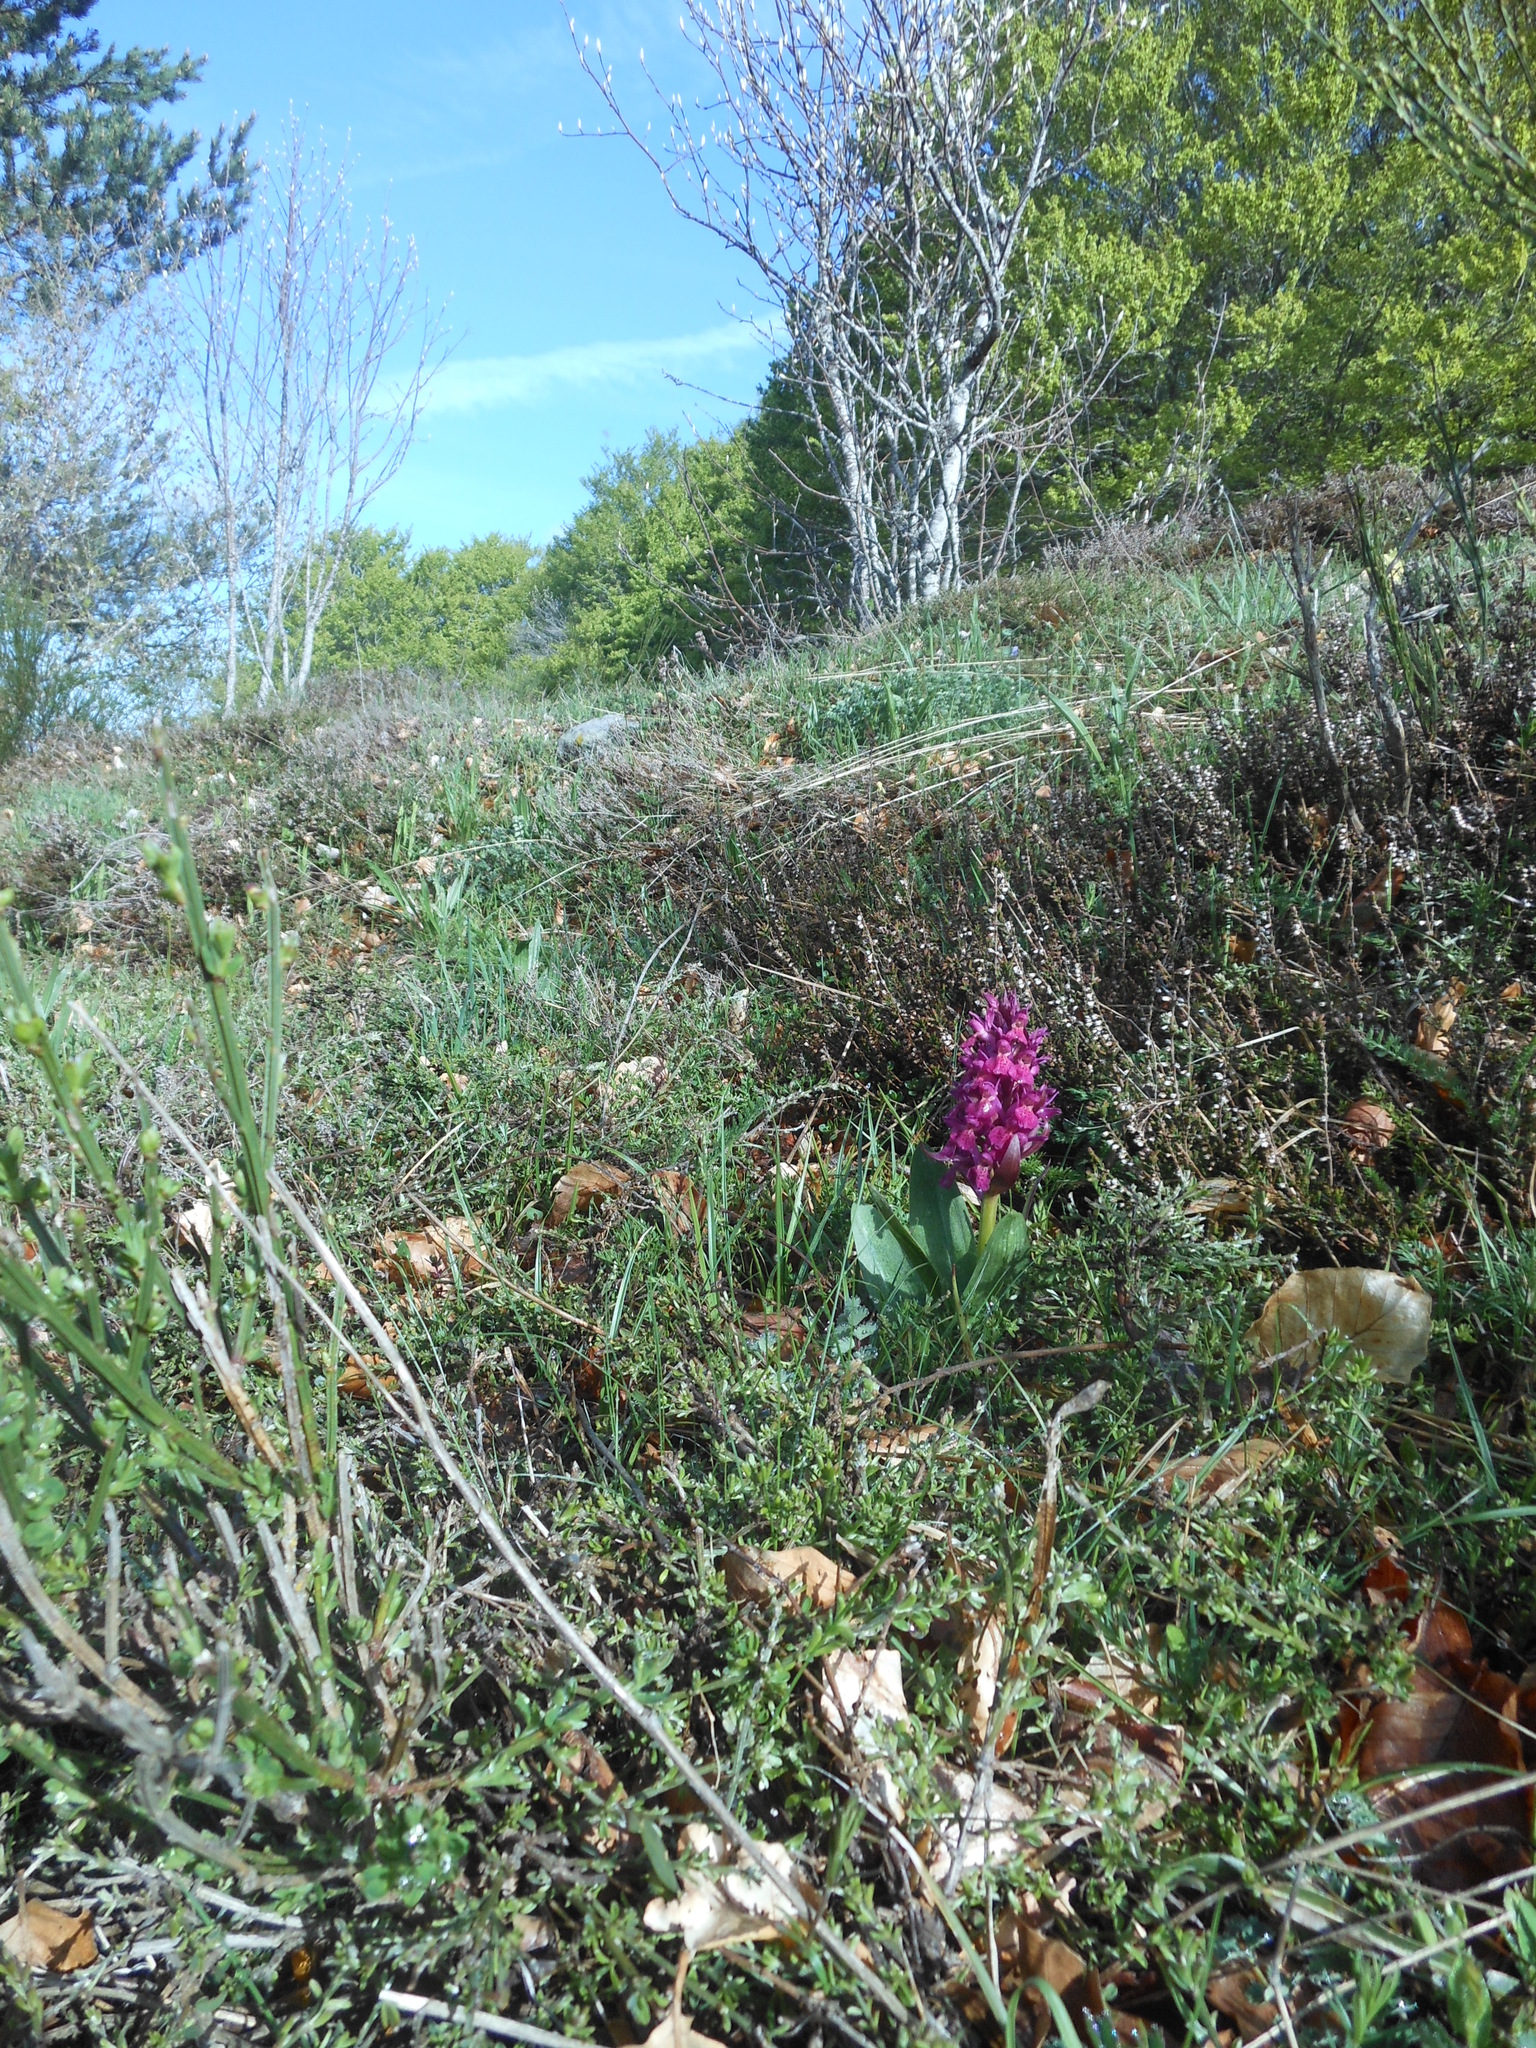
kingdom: Plantae
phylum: Tracheophyta
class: Liliopsida
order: Asparagales
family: Orchidaceae
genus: Dactylorhiza
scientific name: Dactylorhiza sambucina
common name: Elder-flowered orchid
